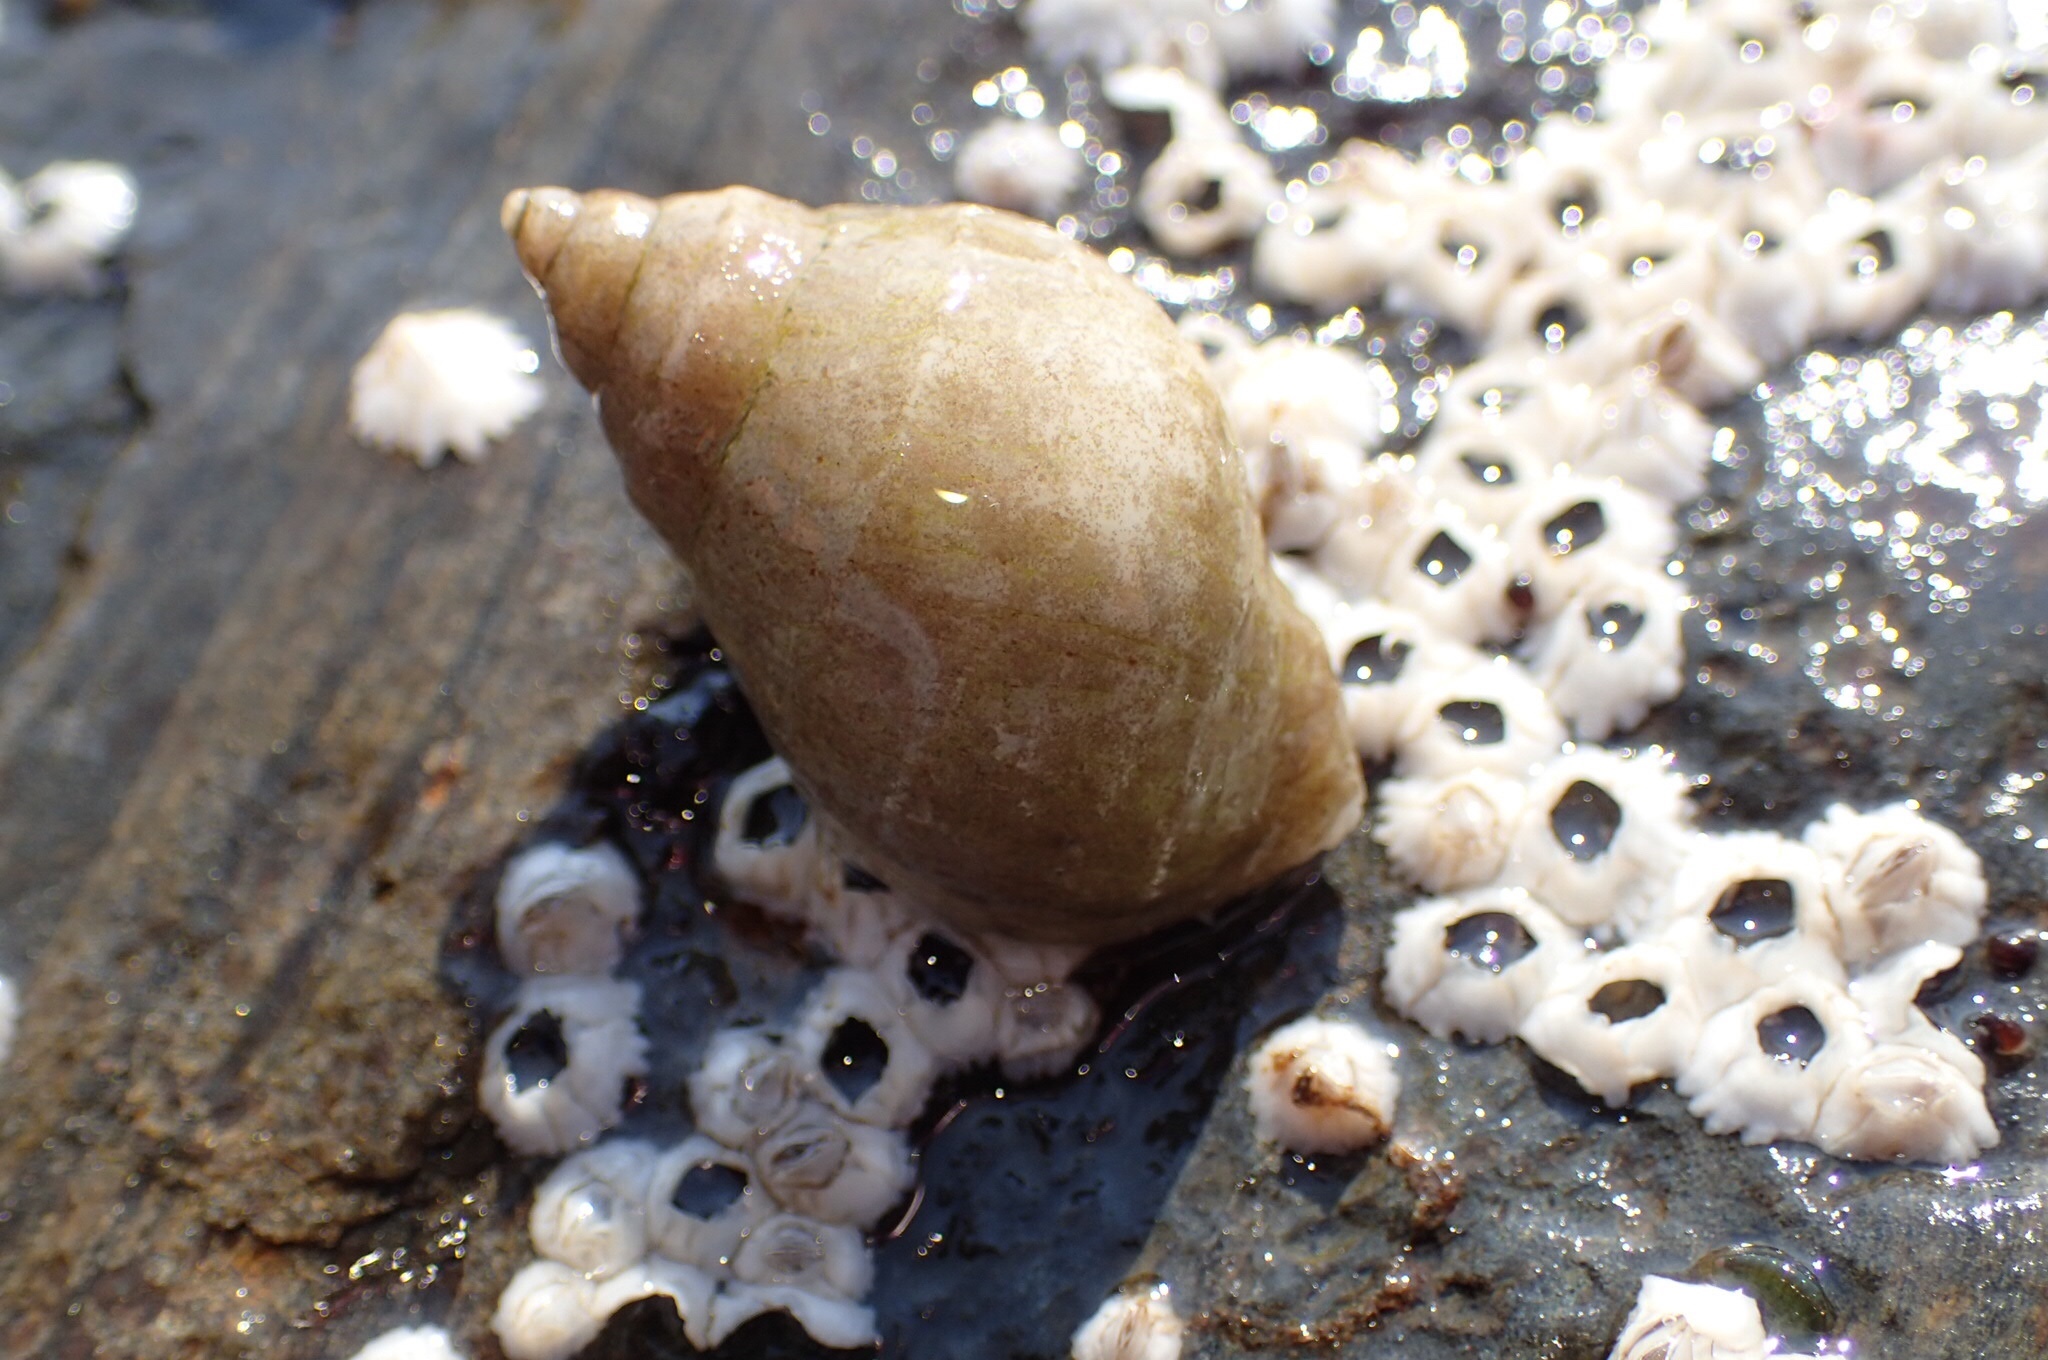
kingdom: Animalia
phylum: Mollusca
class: Gastropoda
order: Neogastropoda
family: Muricidae
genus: Nucella
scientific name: Nucella lapillus
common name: Dog whelk
